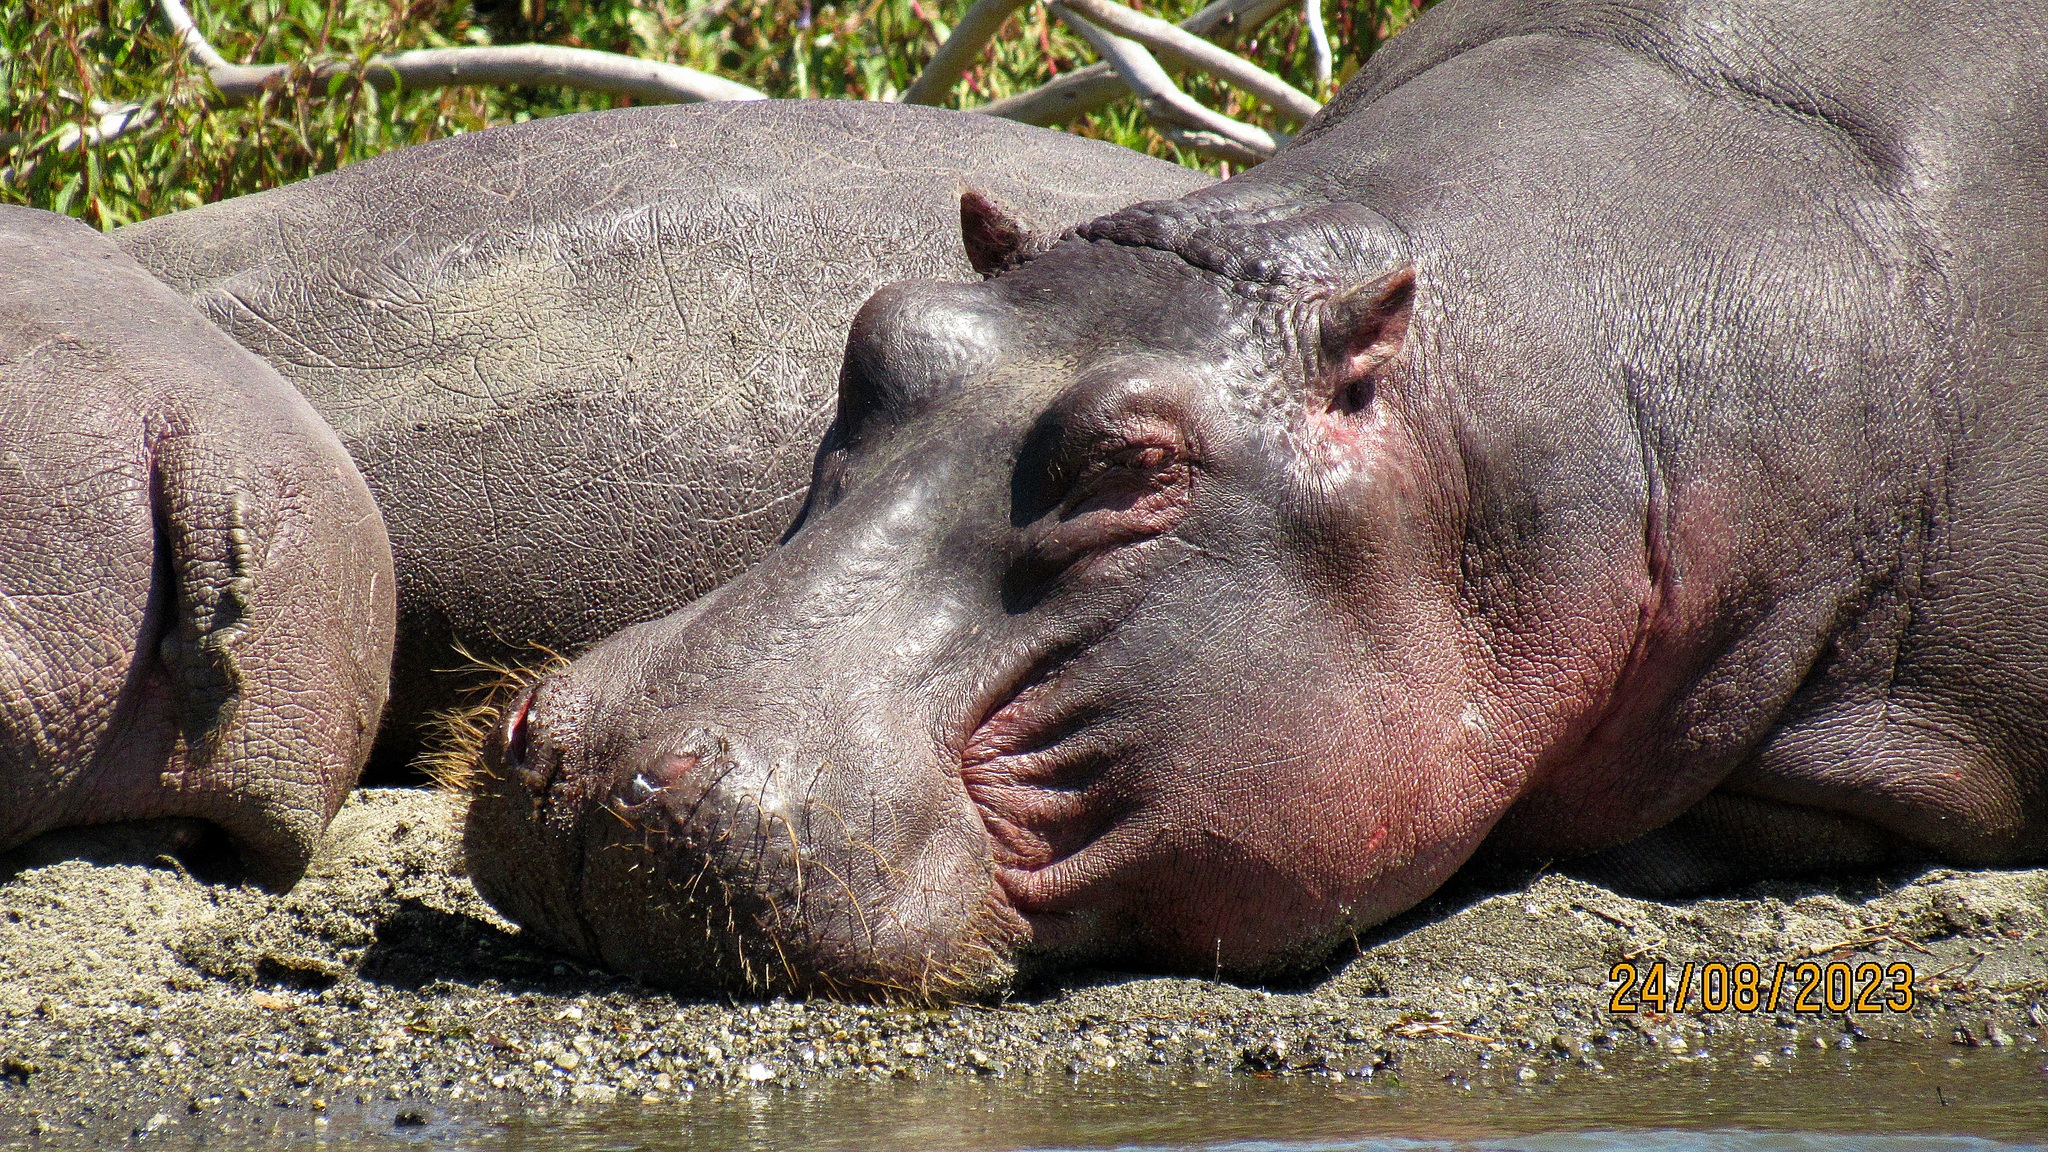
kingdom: Animalia
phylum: Chordata
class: Mammalia
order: Artiodactyla
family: Hippopotamidae
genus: Hippopotamus
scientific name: Hippopotamus amphibius
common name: Common hippopotamus
